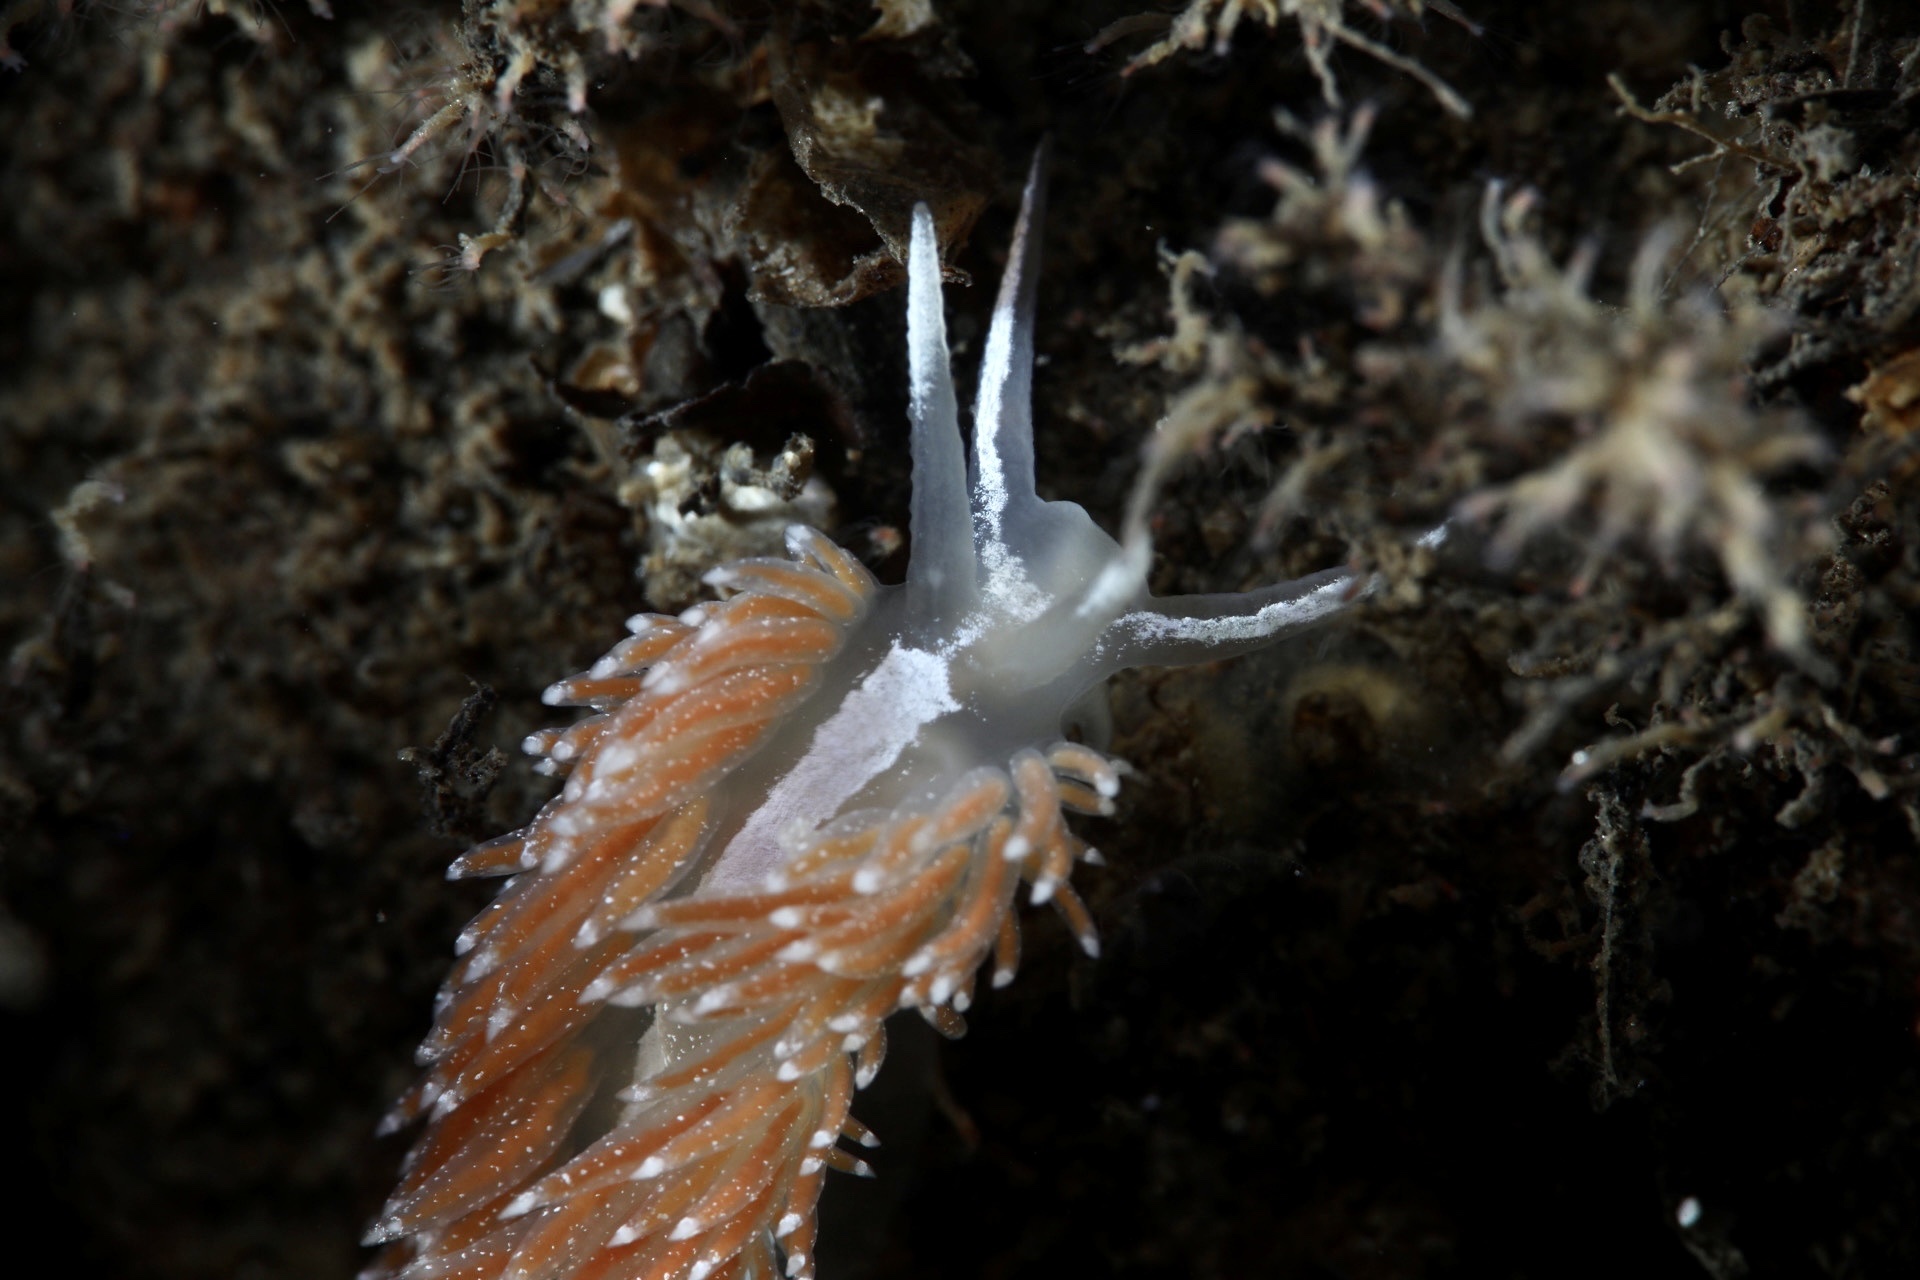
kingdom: Animalia
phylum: Mollusca
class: Gastropoda
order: Nudibranchia
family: Coryphellidae
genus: Coryphella
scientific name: Coryphella orjani
